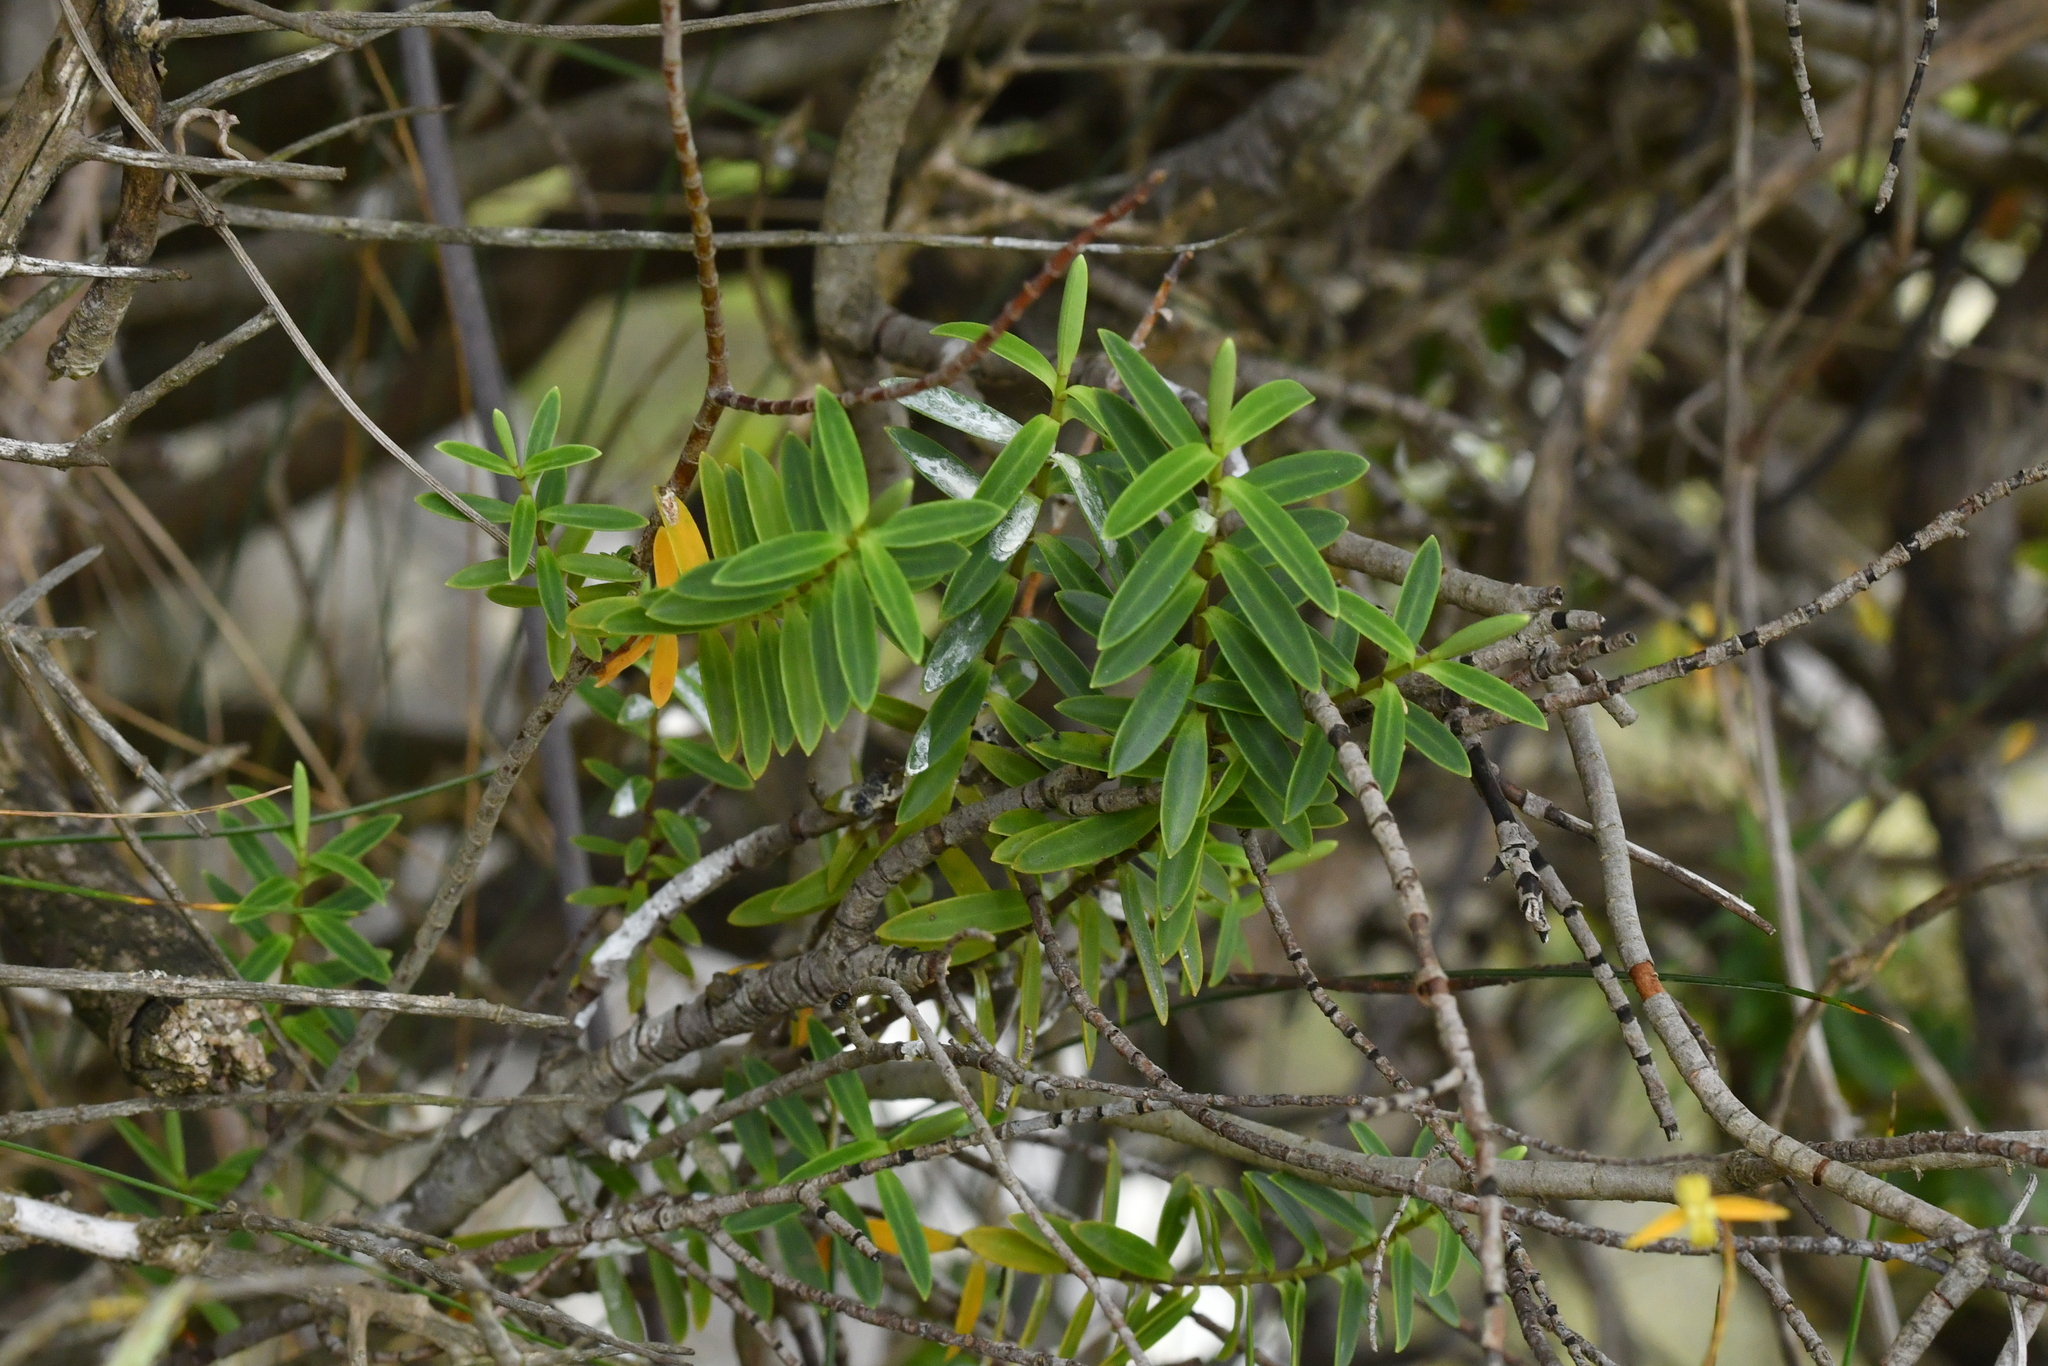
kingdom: Plantae
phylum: Tracheophyta
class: Magnoliopsida
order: Lamiales
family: Plantaginaceae
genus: Veronica
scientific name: Veronica rakaiensis
